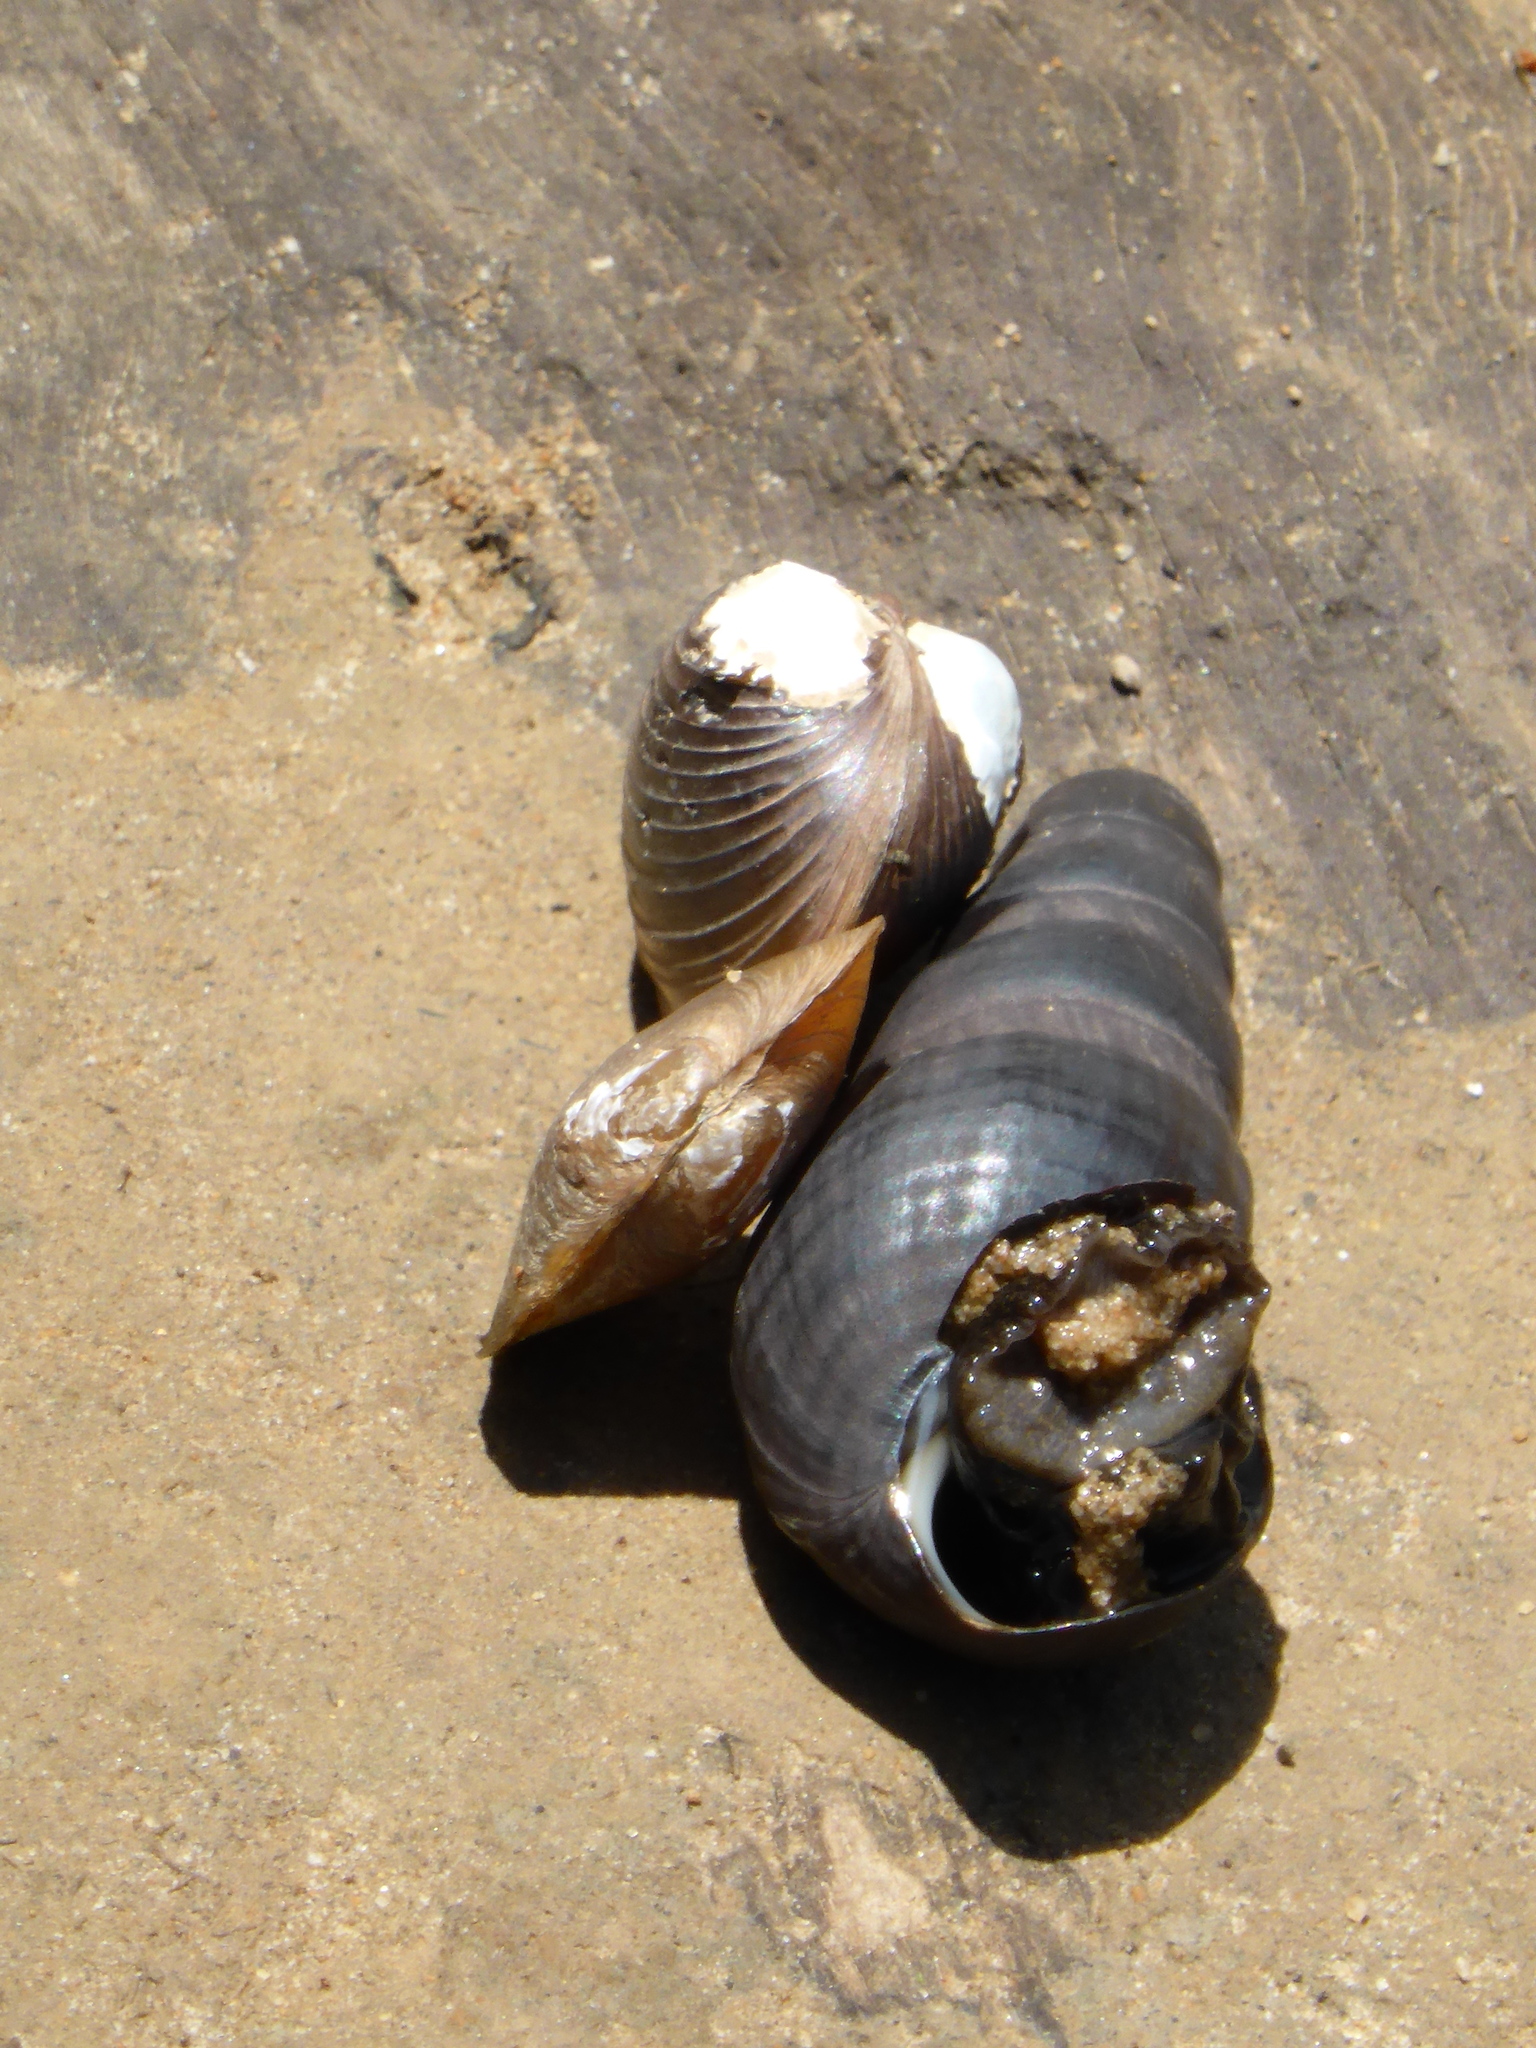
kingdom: Animalia
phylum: Mollusca
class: Bivalvia
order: Venerida
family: Cyrenidae
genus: Corbicula
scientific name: Corbicula fluminea
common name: Asian clam
